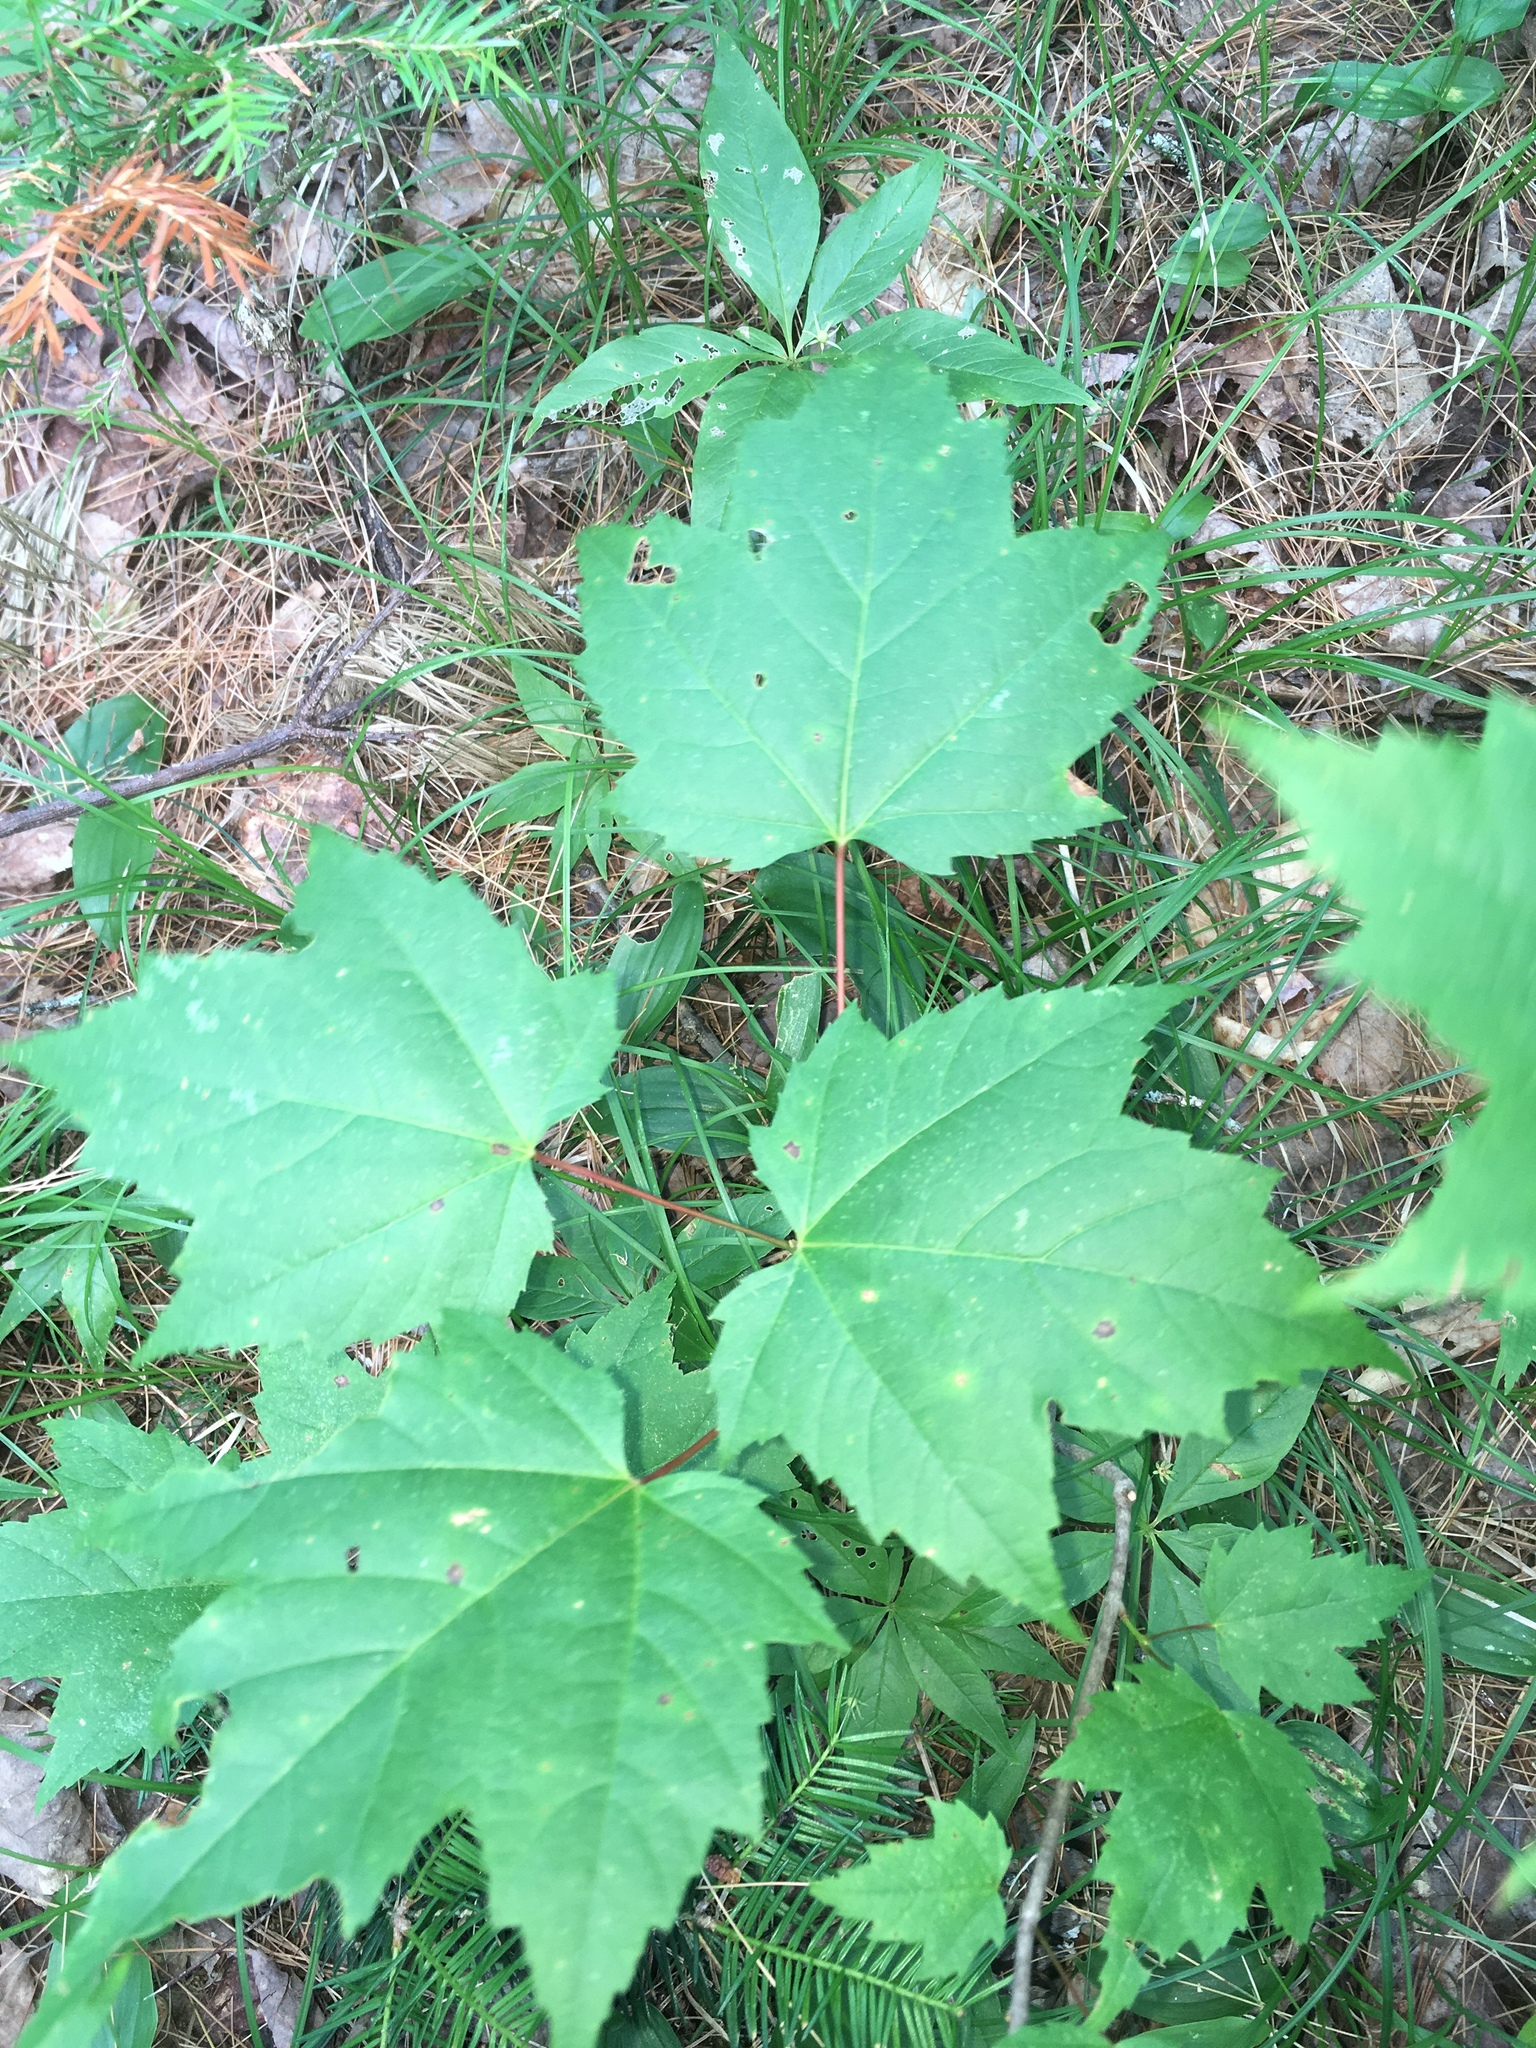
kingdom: Plantae
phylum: Tracheophyta
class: Magnoliopsida
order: Sapindales
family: Sapindaceae
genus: Acer
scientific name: Acer rubrum
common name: Red maple
